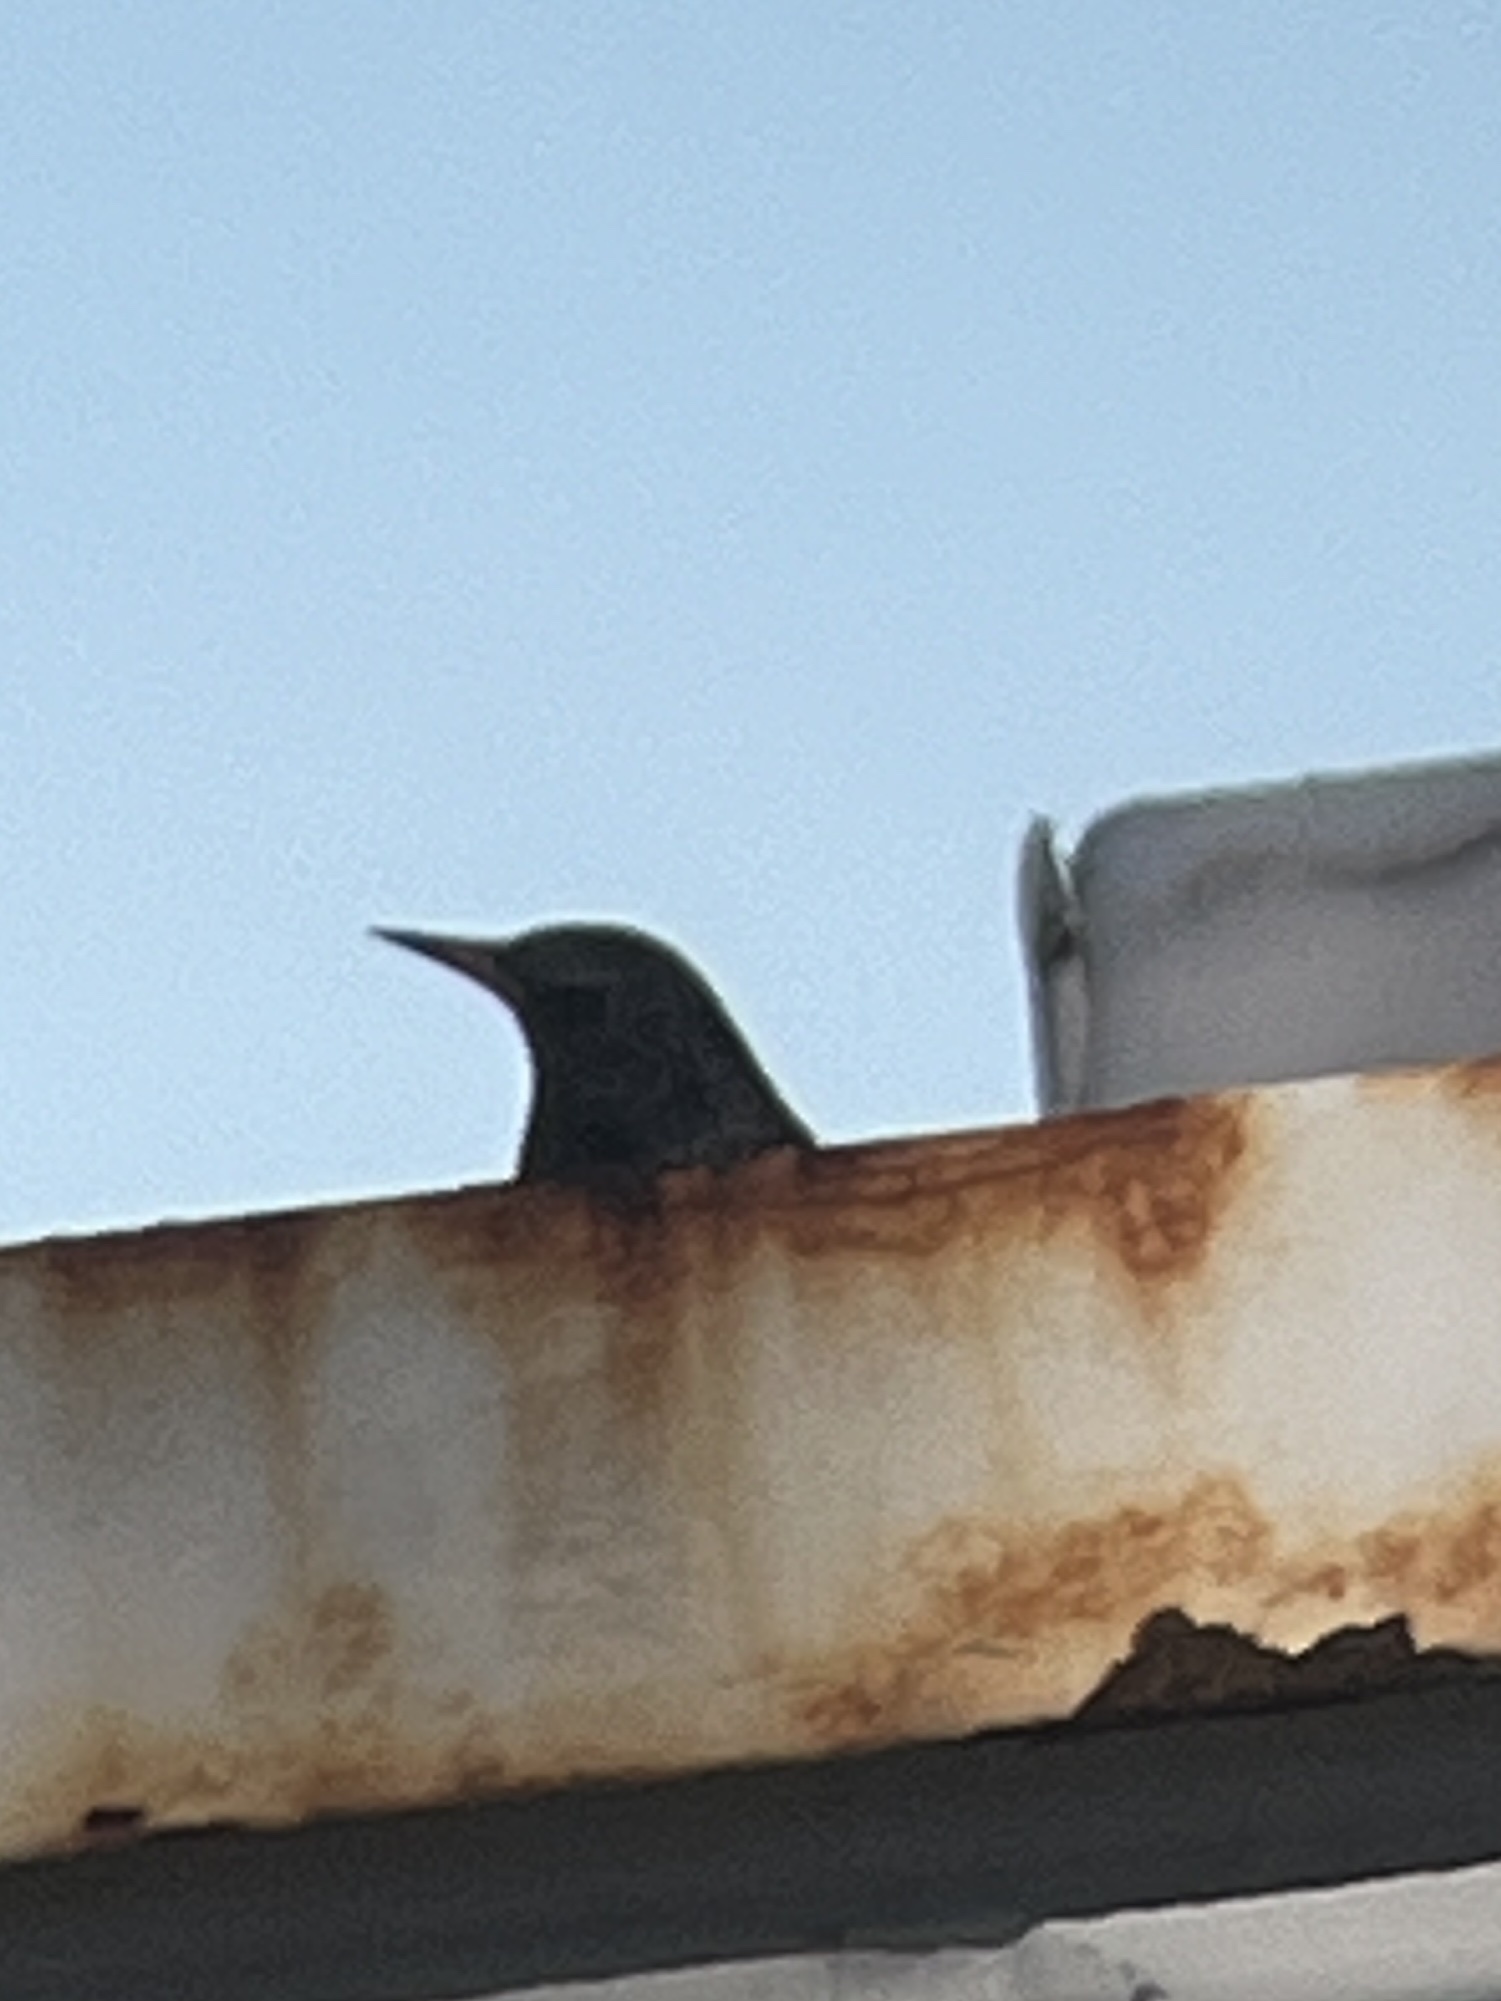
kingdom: Animalia
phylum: Chordata
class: Aves
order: Passeriformes
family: Sturnidae
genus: Sturnus
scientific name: Sturnus vulgaris
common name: Common starling
